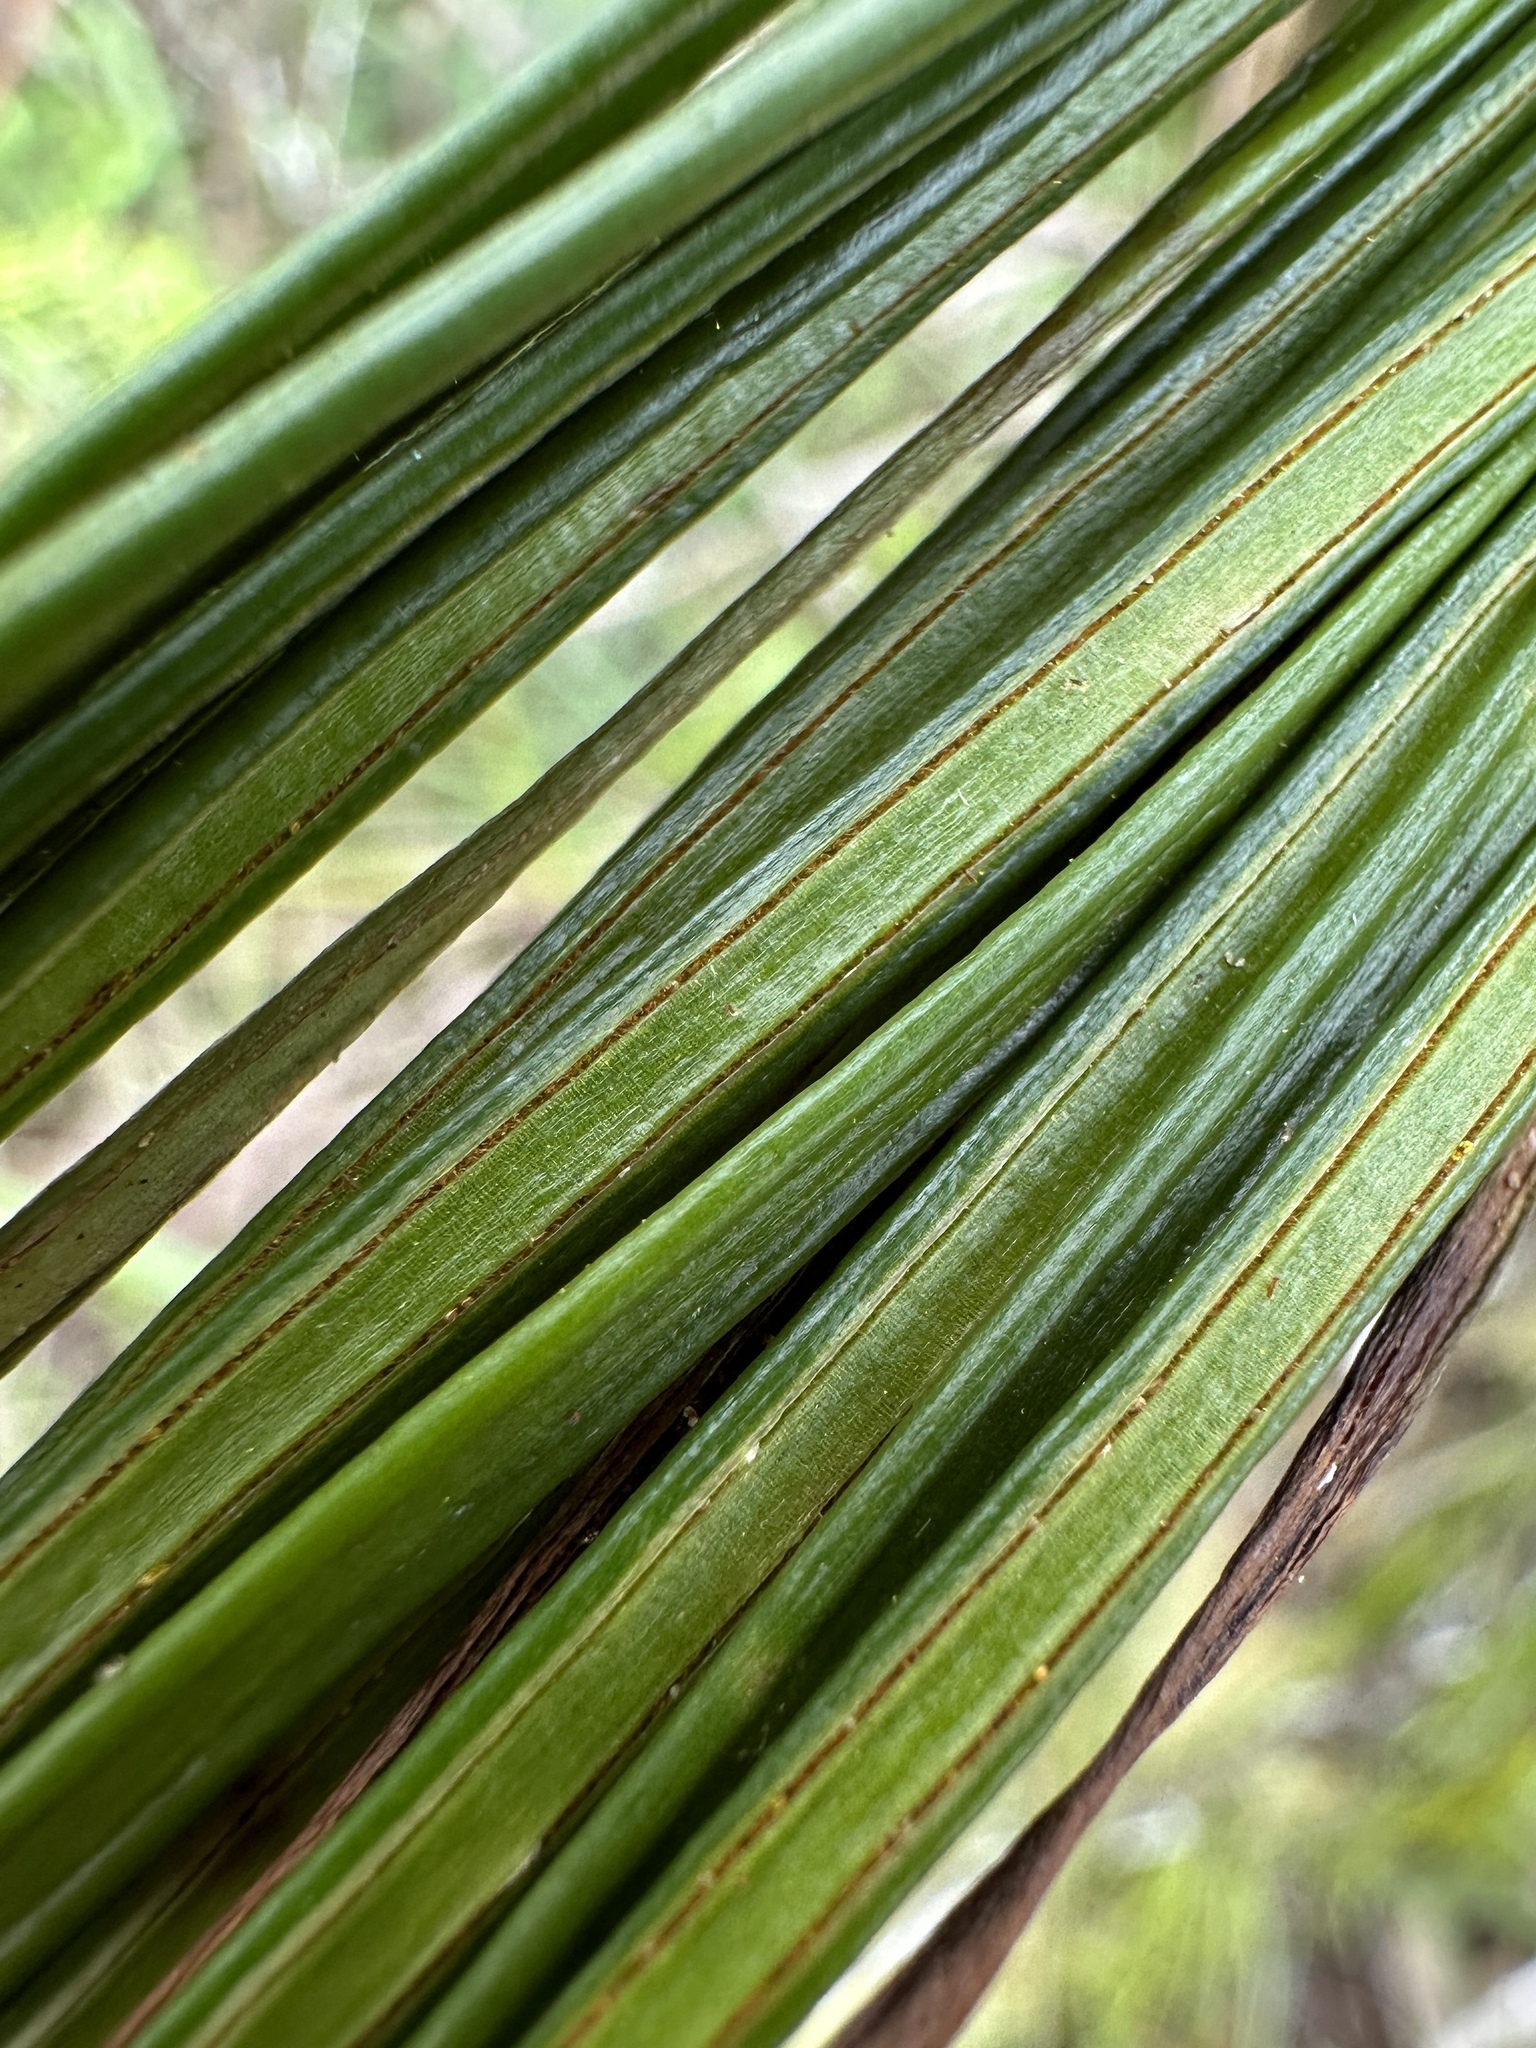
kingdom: Plantae
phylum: Tracheophyta
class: Polypodiopsida
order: Polypodiales
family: Pteridaceae
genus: Vittaria
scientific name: Vittaria lineata
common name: Shoestring fern
